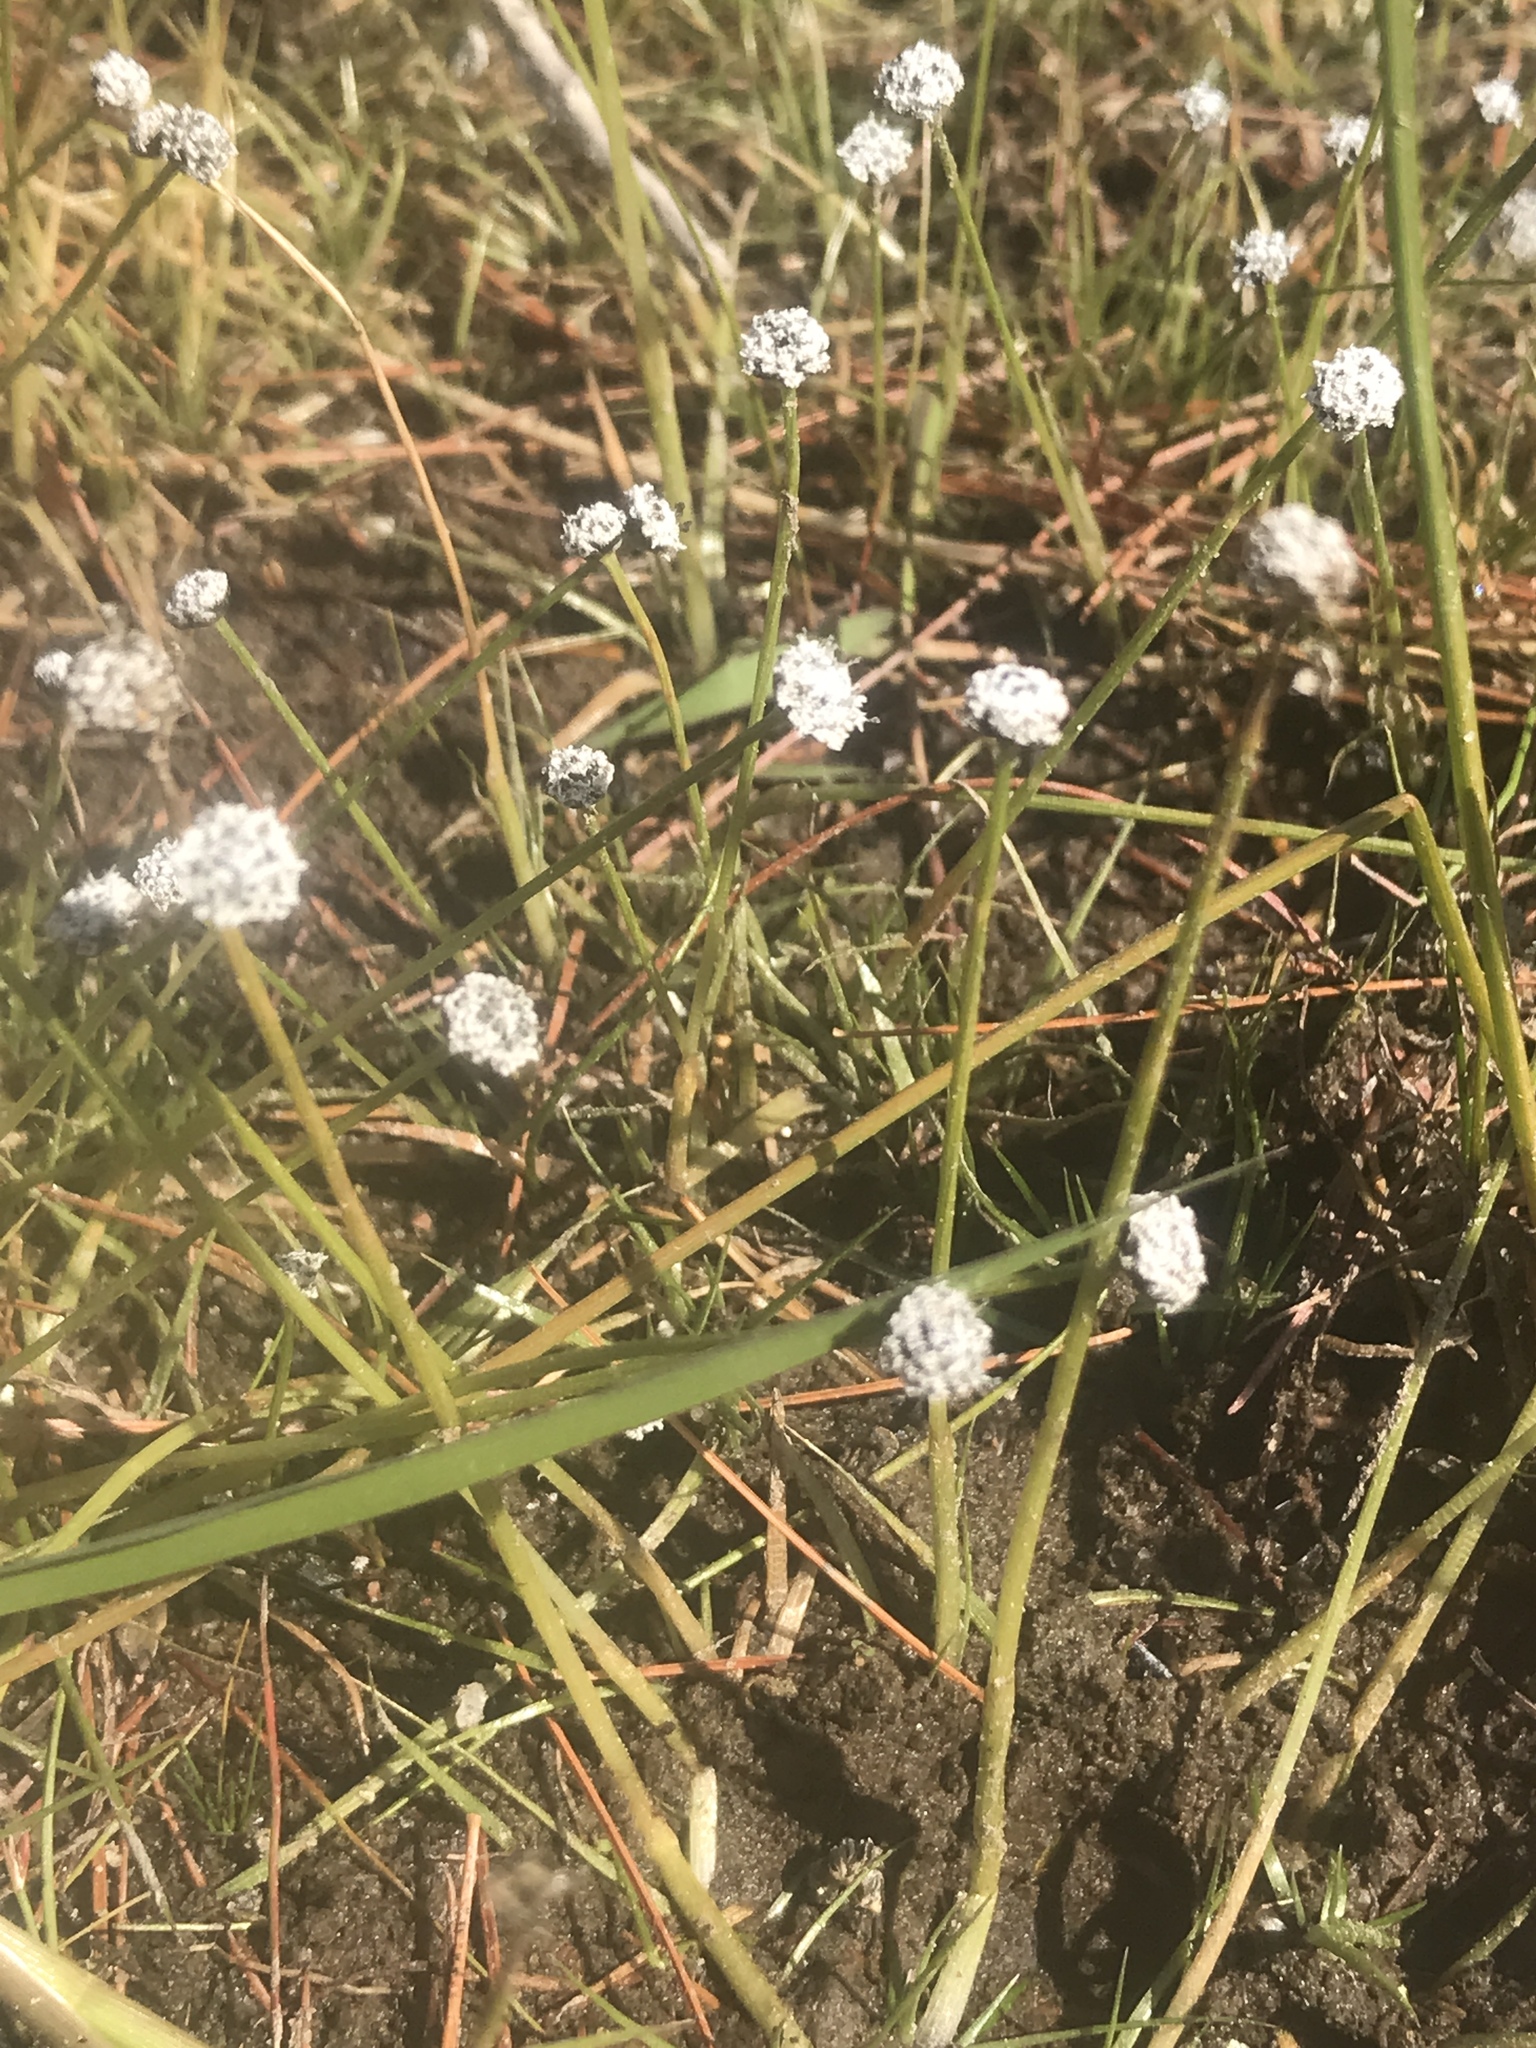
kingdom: Plantae
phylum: Tracheophyta
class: Liliopsida
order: Poales
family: Eriocaulaceae
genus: Eriocaulon
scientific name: Eriocaulon aquaticum
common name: Pipewort
